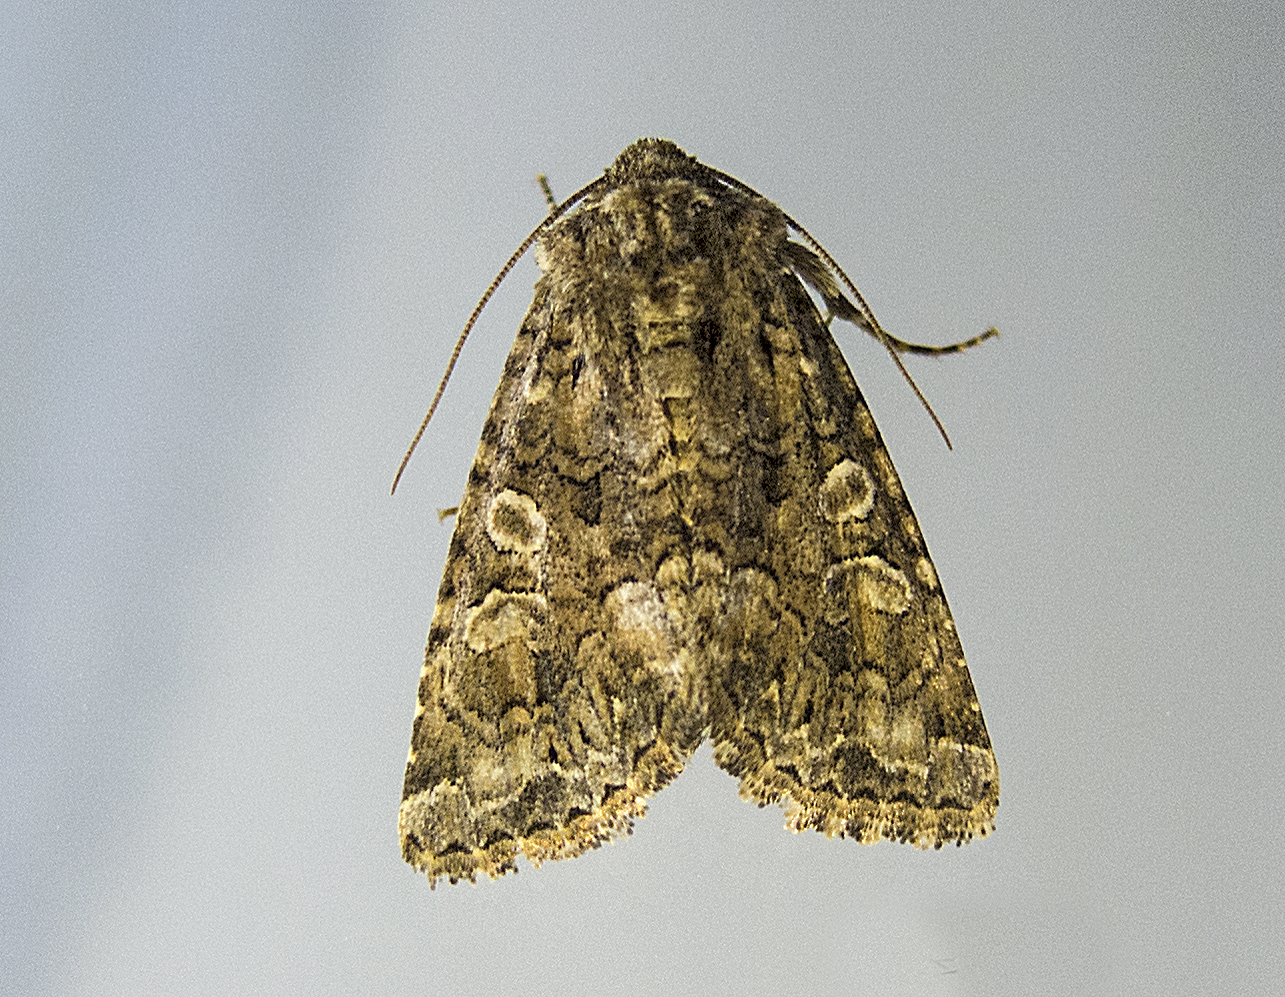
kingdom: Animalia
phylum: Arthropoda
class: Insecta
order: Lepidoptera
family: Noctuidae
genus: Anarta
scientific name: Anarta trifolii
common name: Clover cutworm moth
